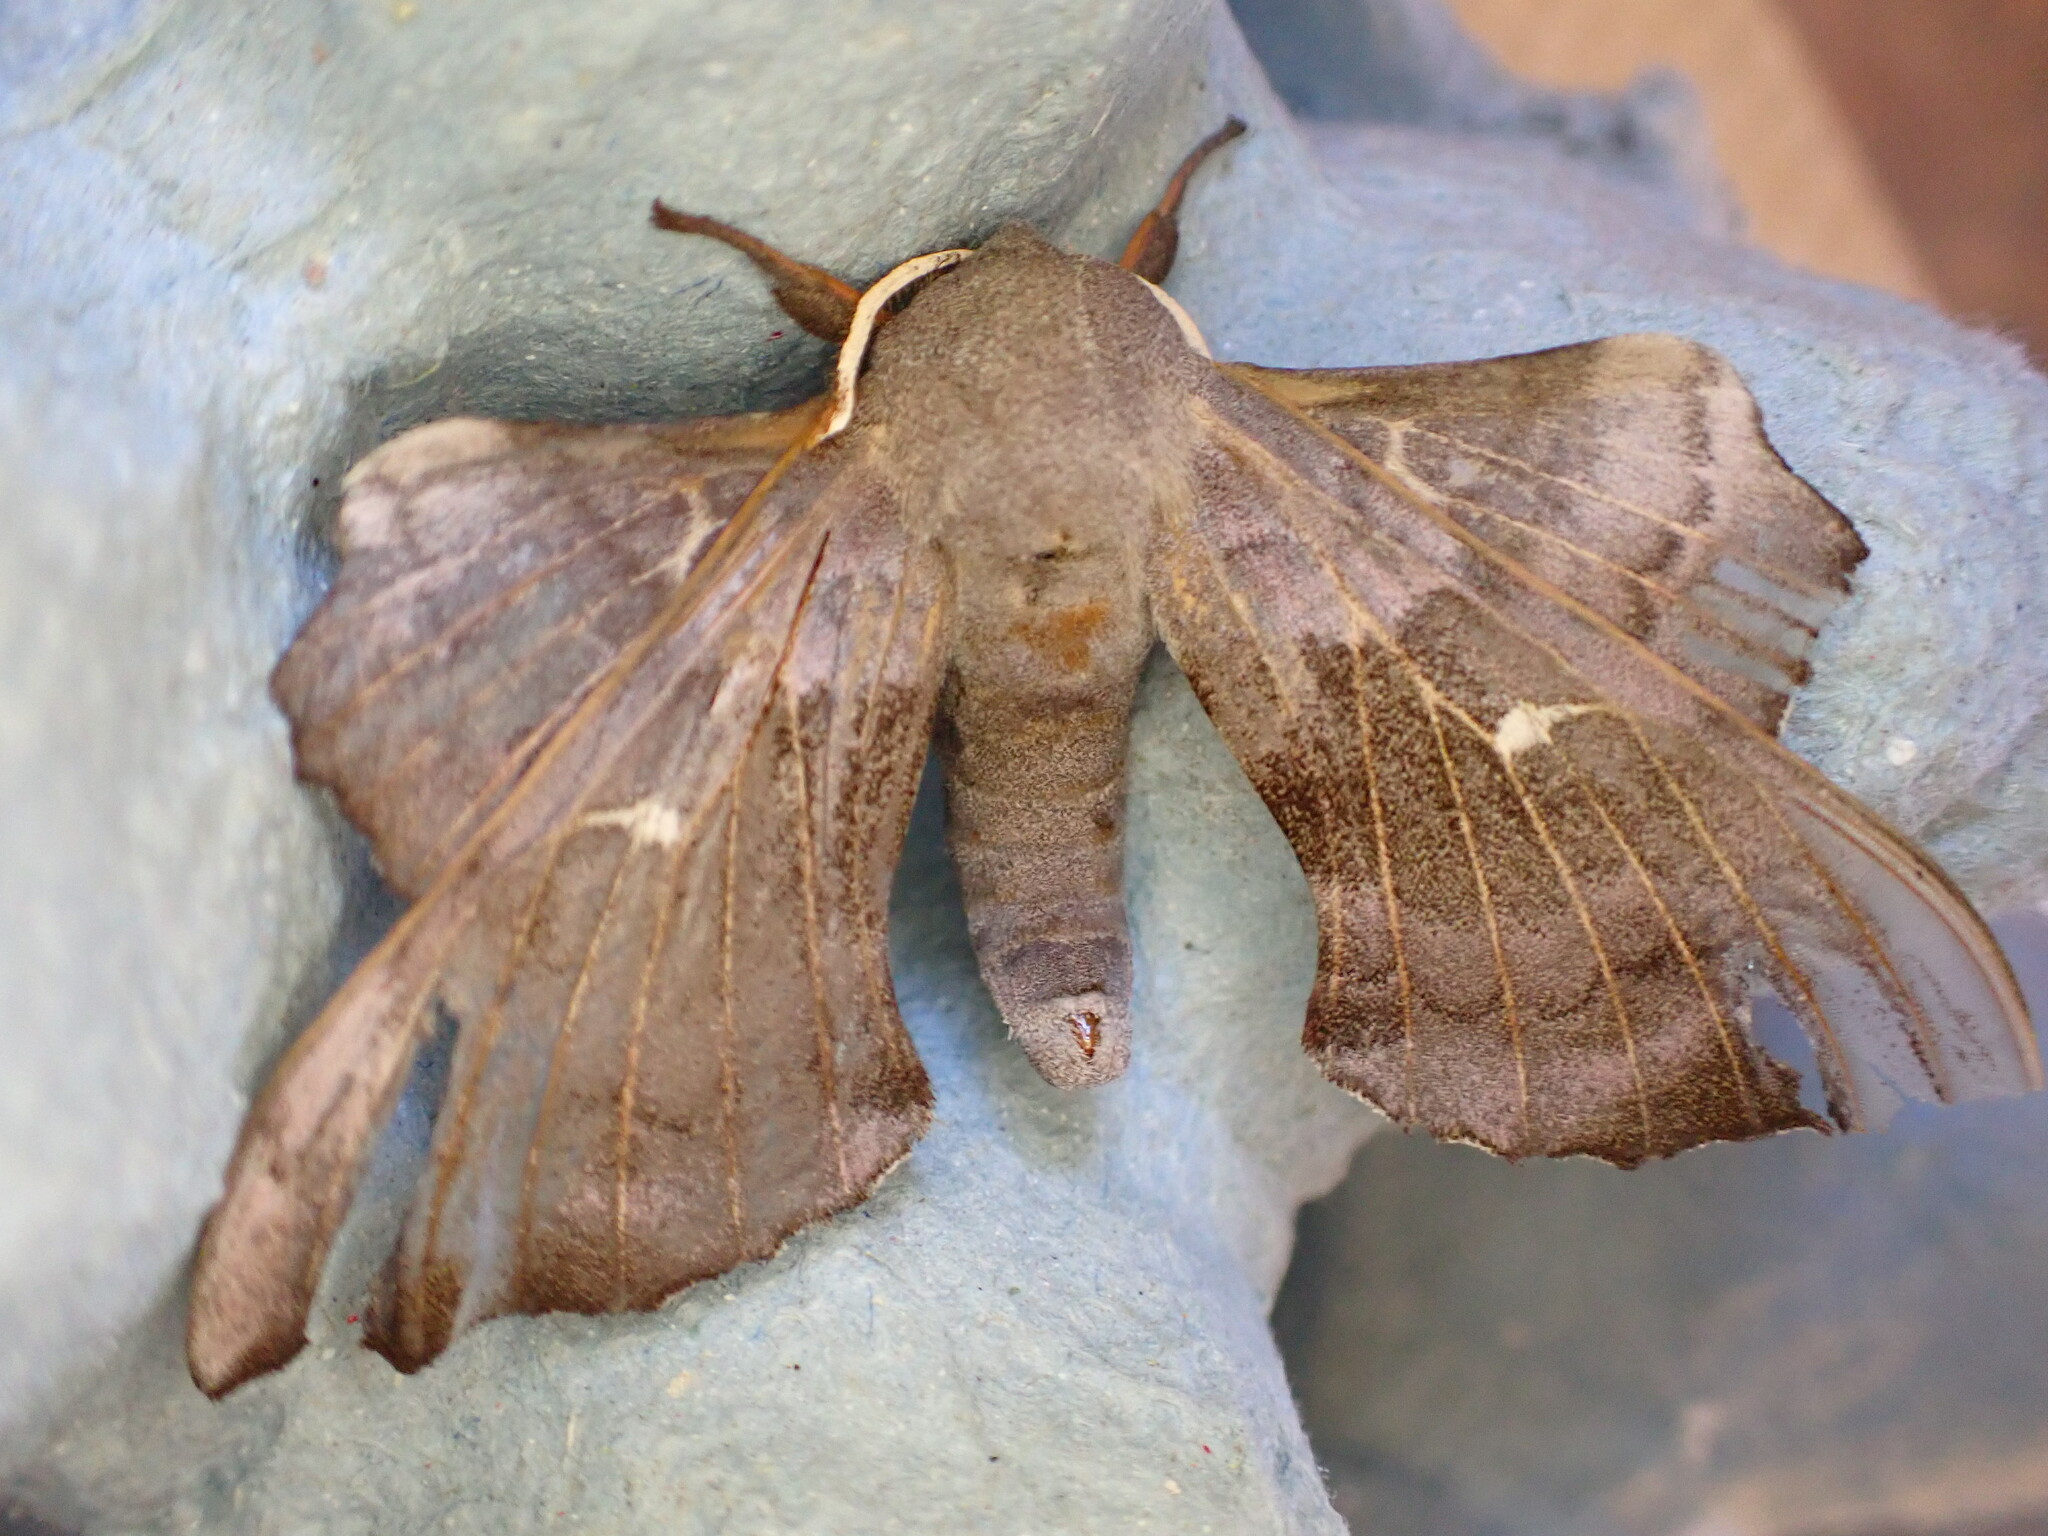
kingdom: Animalia
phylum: Arthropoda
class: Insecta
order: Lepidoptera
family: Sphingidae
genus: Laothoe
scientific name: Laothoe populi
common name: Poplar hawk-moth
